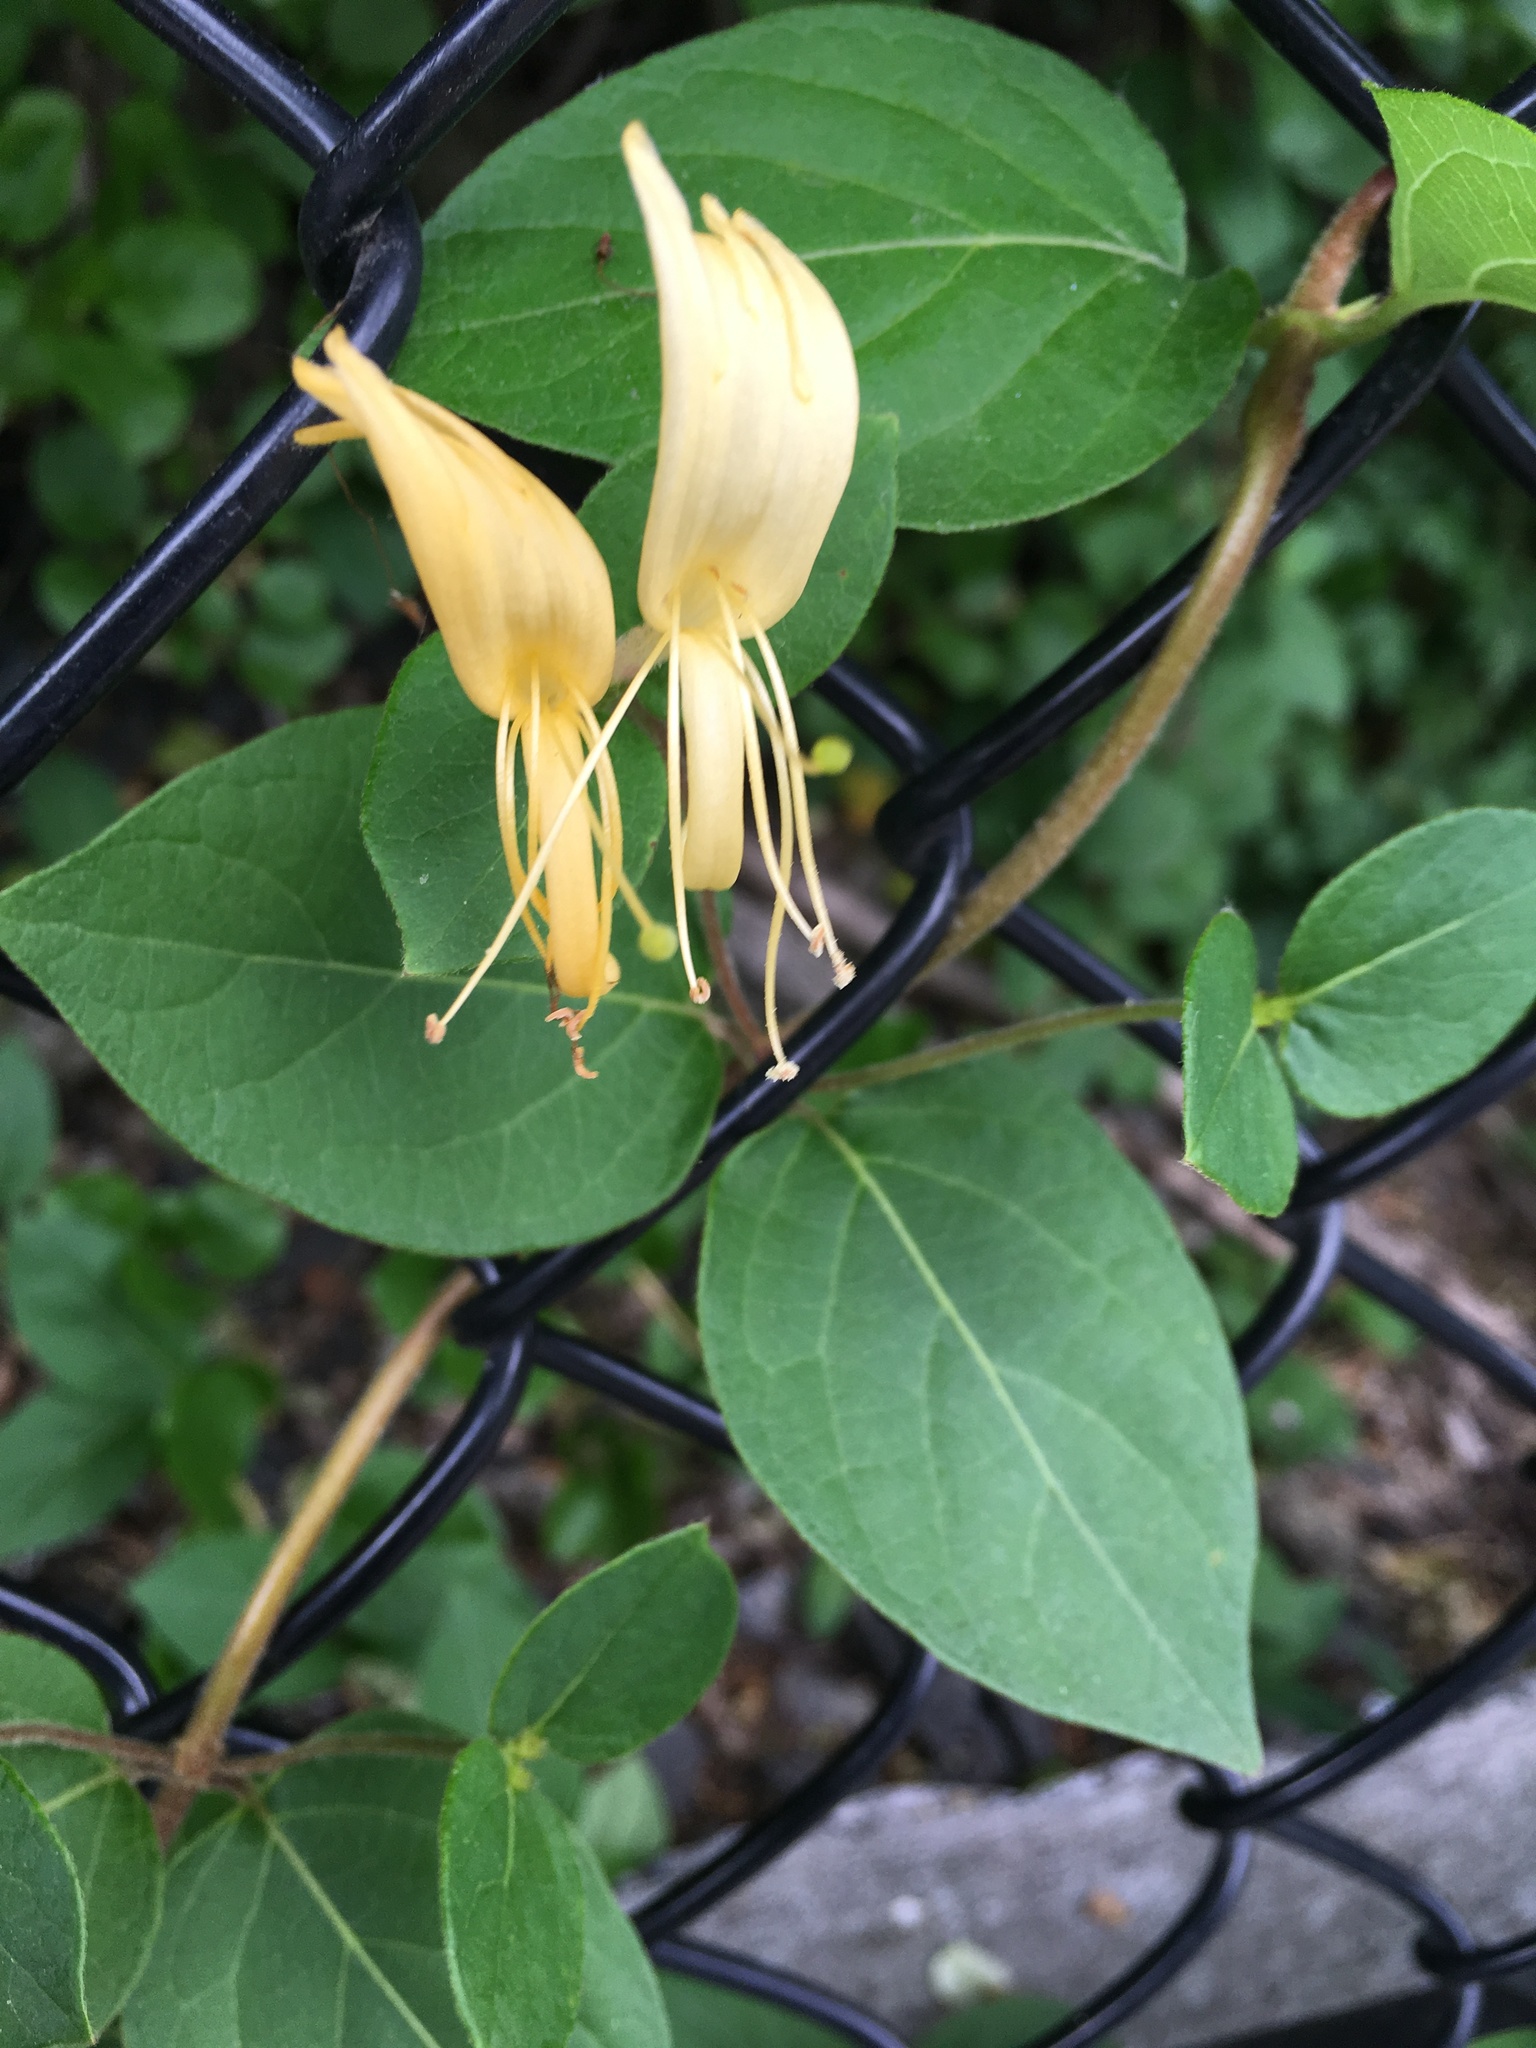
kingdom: Plantae
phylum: Tracheophyta
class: Magnoliopsida
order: Dipsacales
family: Caprifoliaceae
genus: Lonicera
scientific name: Lonicera japonica
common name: Japanese honeysuckle
